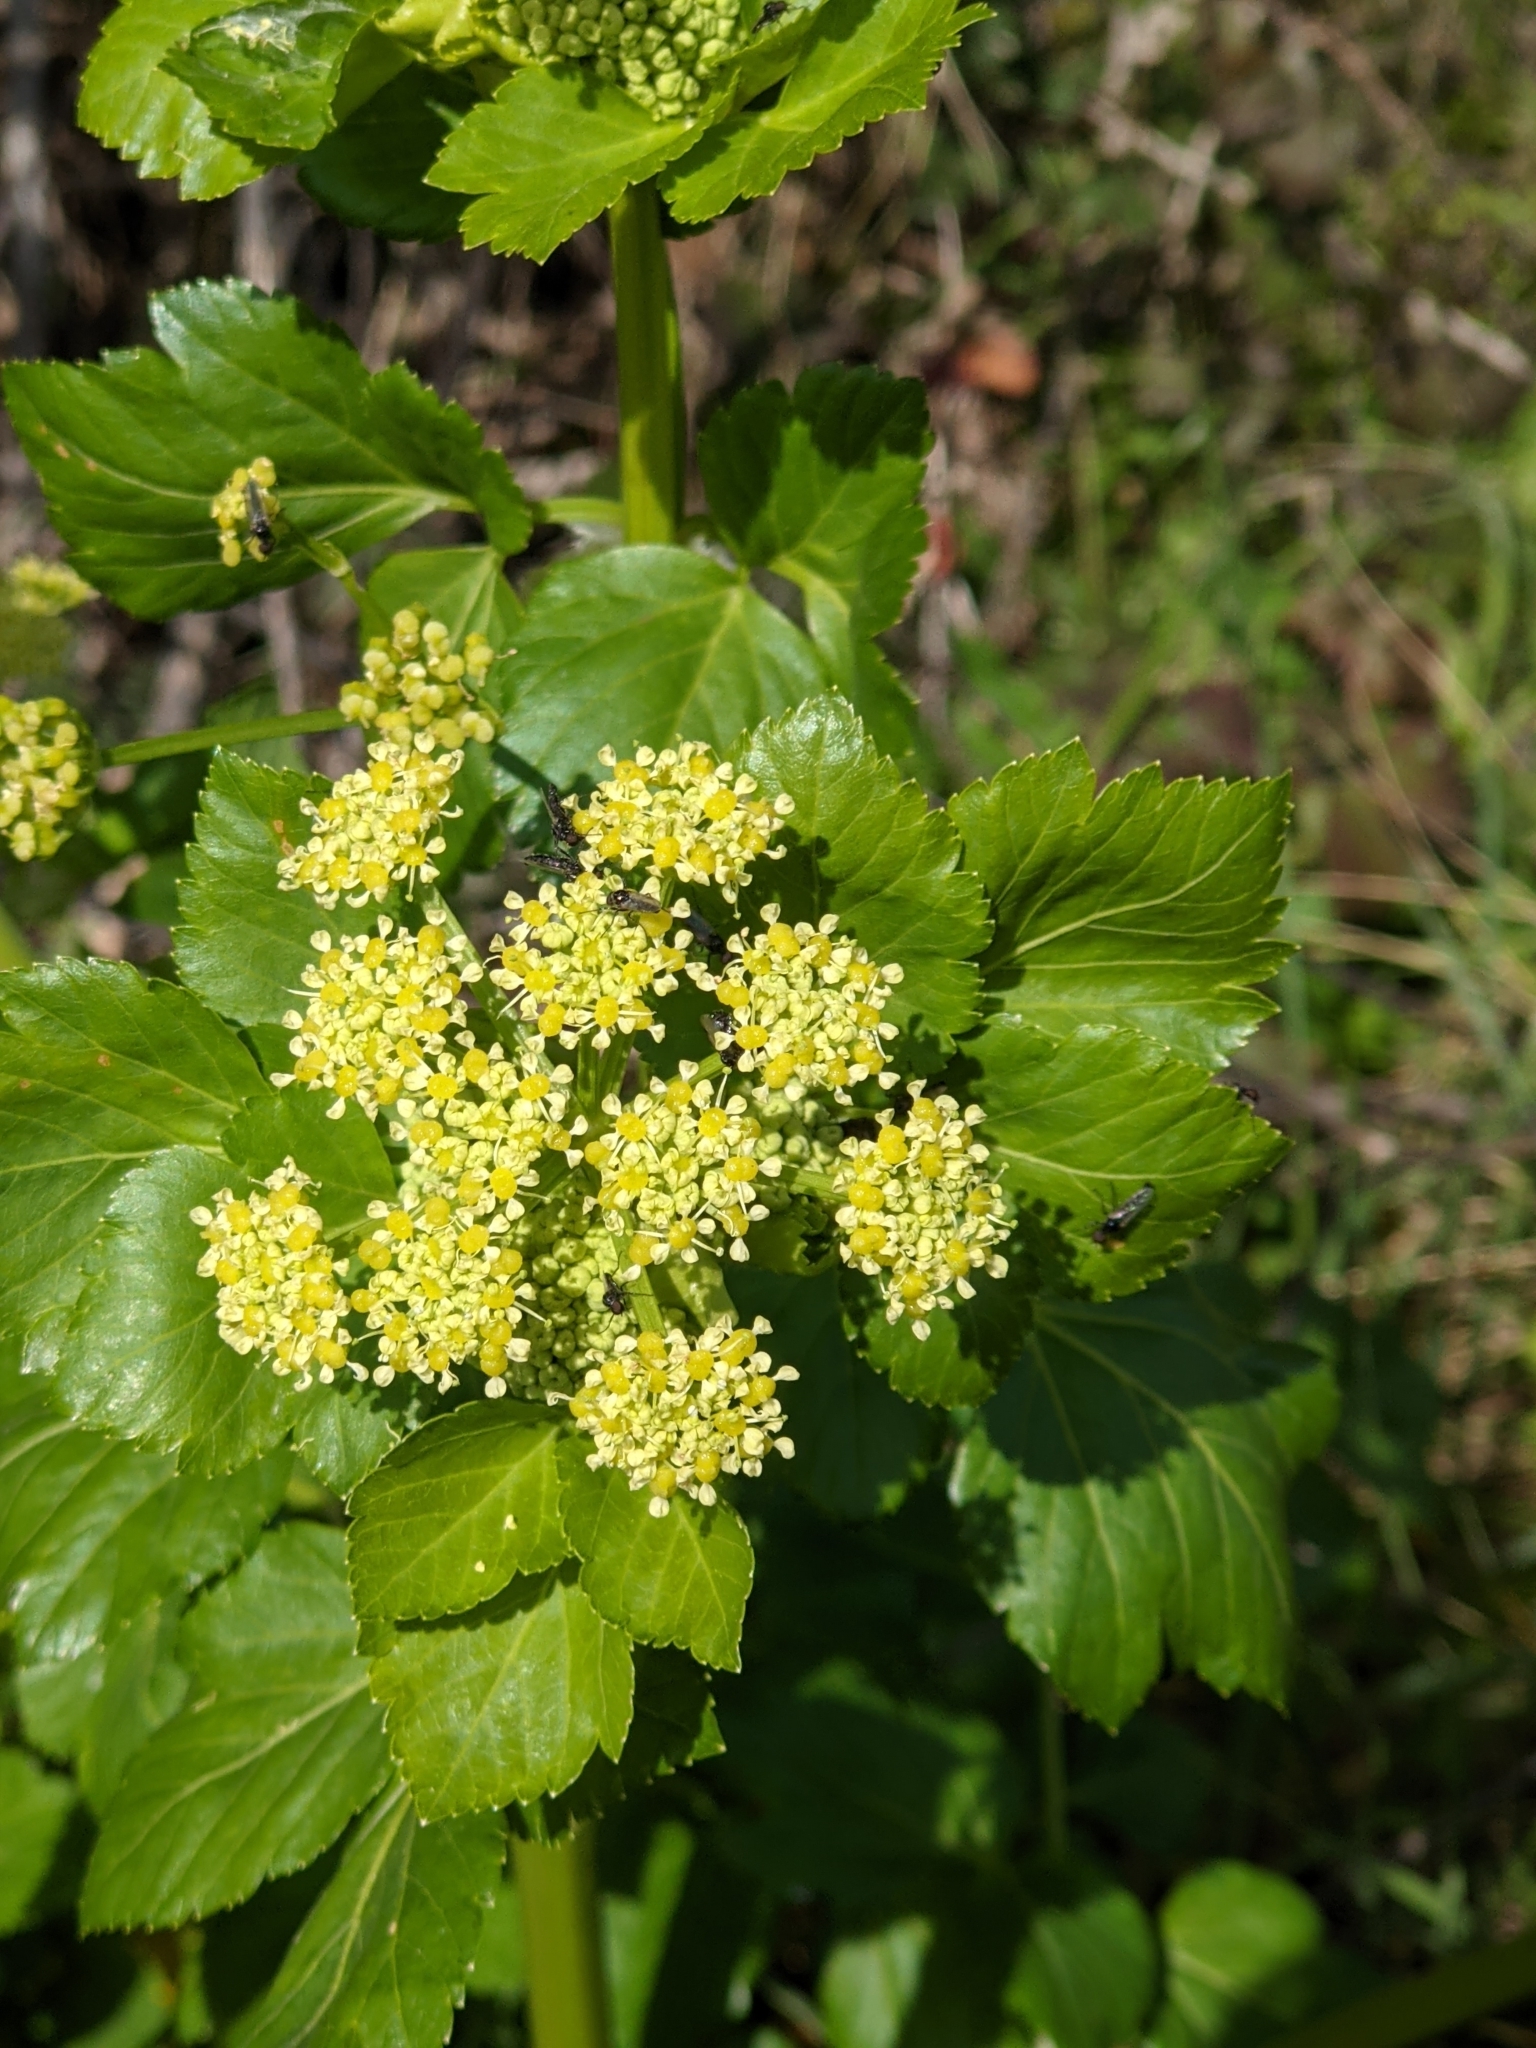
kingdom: Plantae
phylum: Tracheophyta
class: Magnoliopsida
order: Apiales
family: Apiaceae
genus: Smyrnium
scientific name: Smyrnium olusatrum
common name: Alexanders
